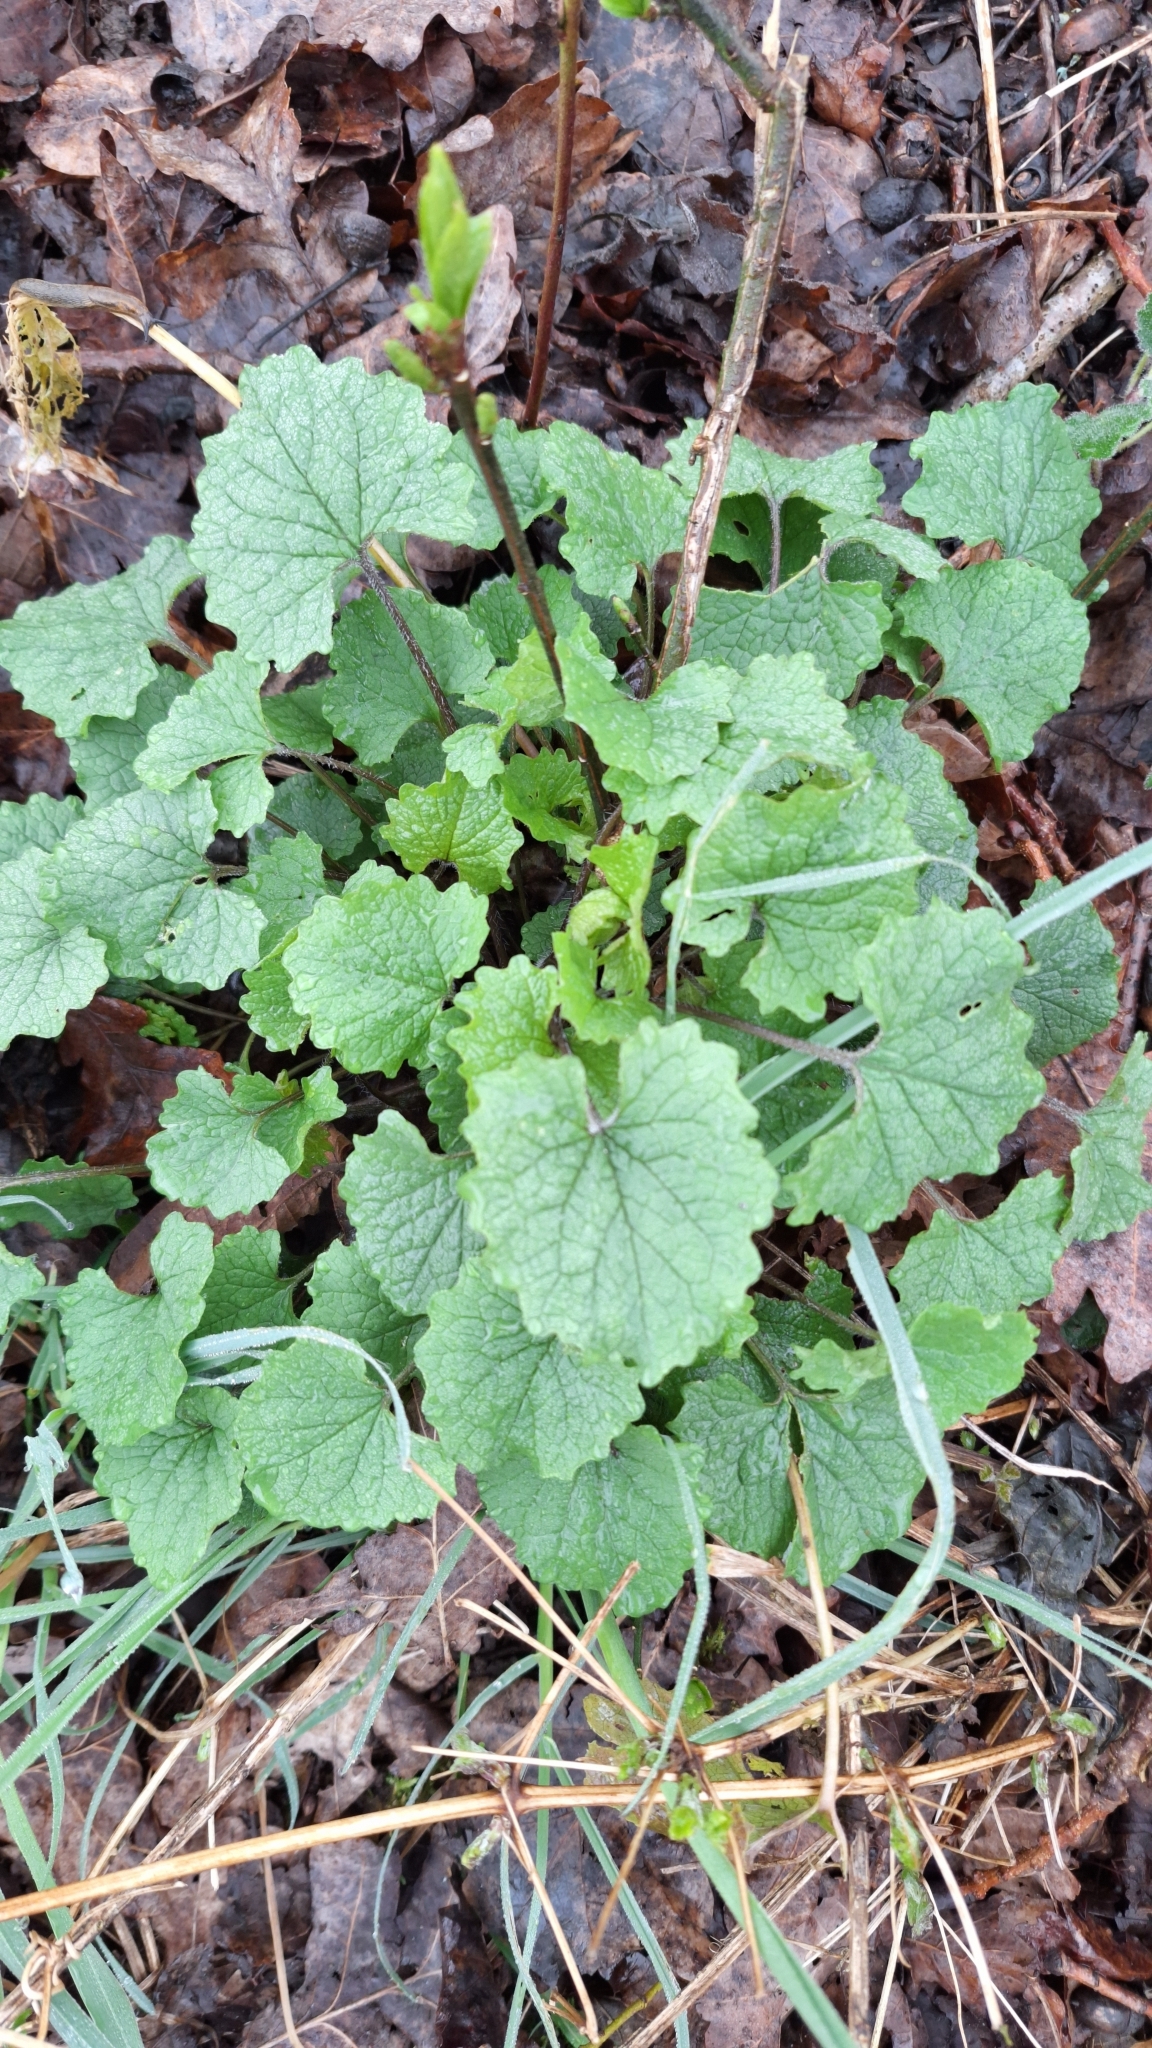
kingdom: Plantae
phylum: Tracheophyta
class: Magnoliopsida
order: Brassicales
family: Brassicaceae
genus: Alliaria
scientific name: Alliaria petiolata
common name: Garlic mustard
